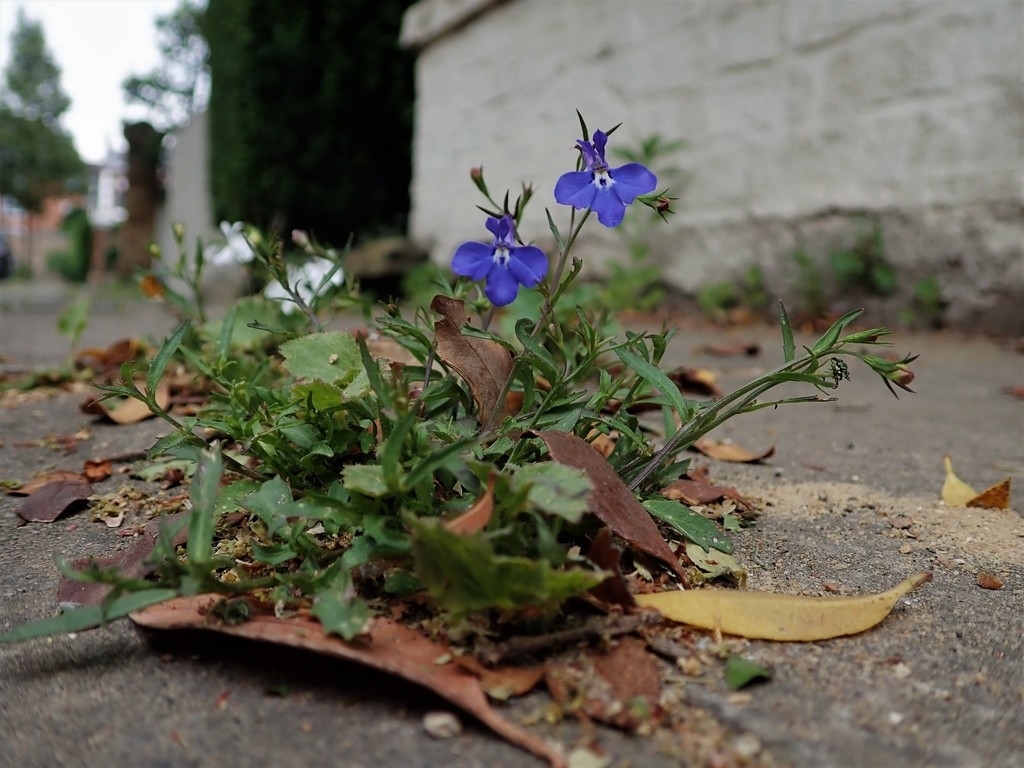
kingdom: Plantae
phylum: Tracheophyta
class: Magnoliopsida
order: Asterales
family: Campanulaceae
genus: Lobelia
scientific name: Lobelia erinus
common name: Edging lobelia
